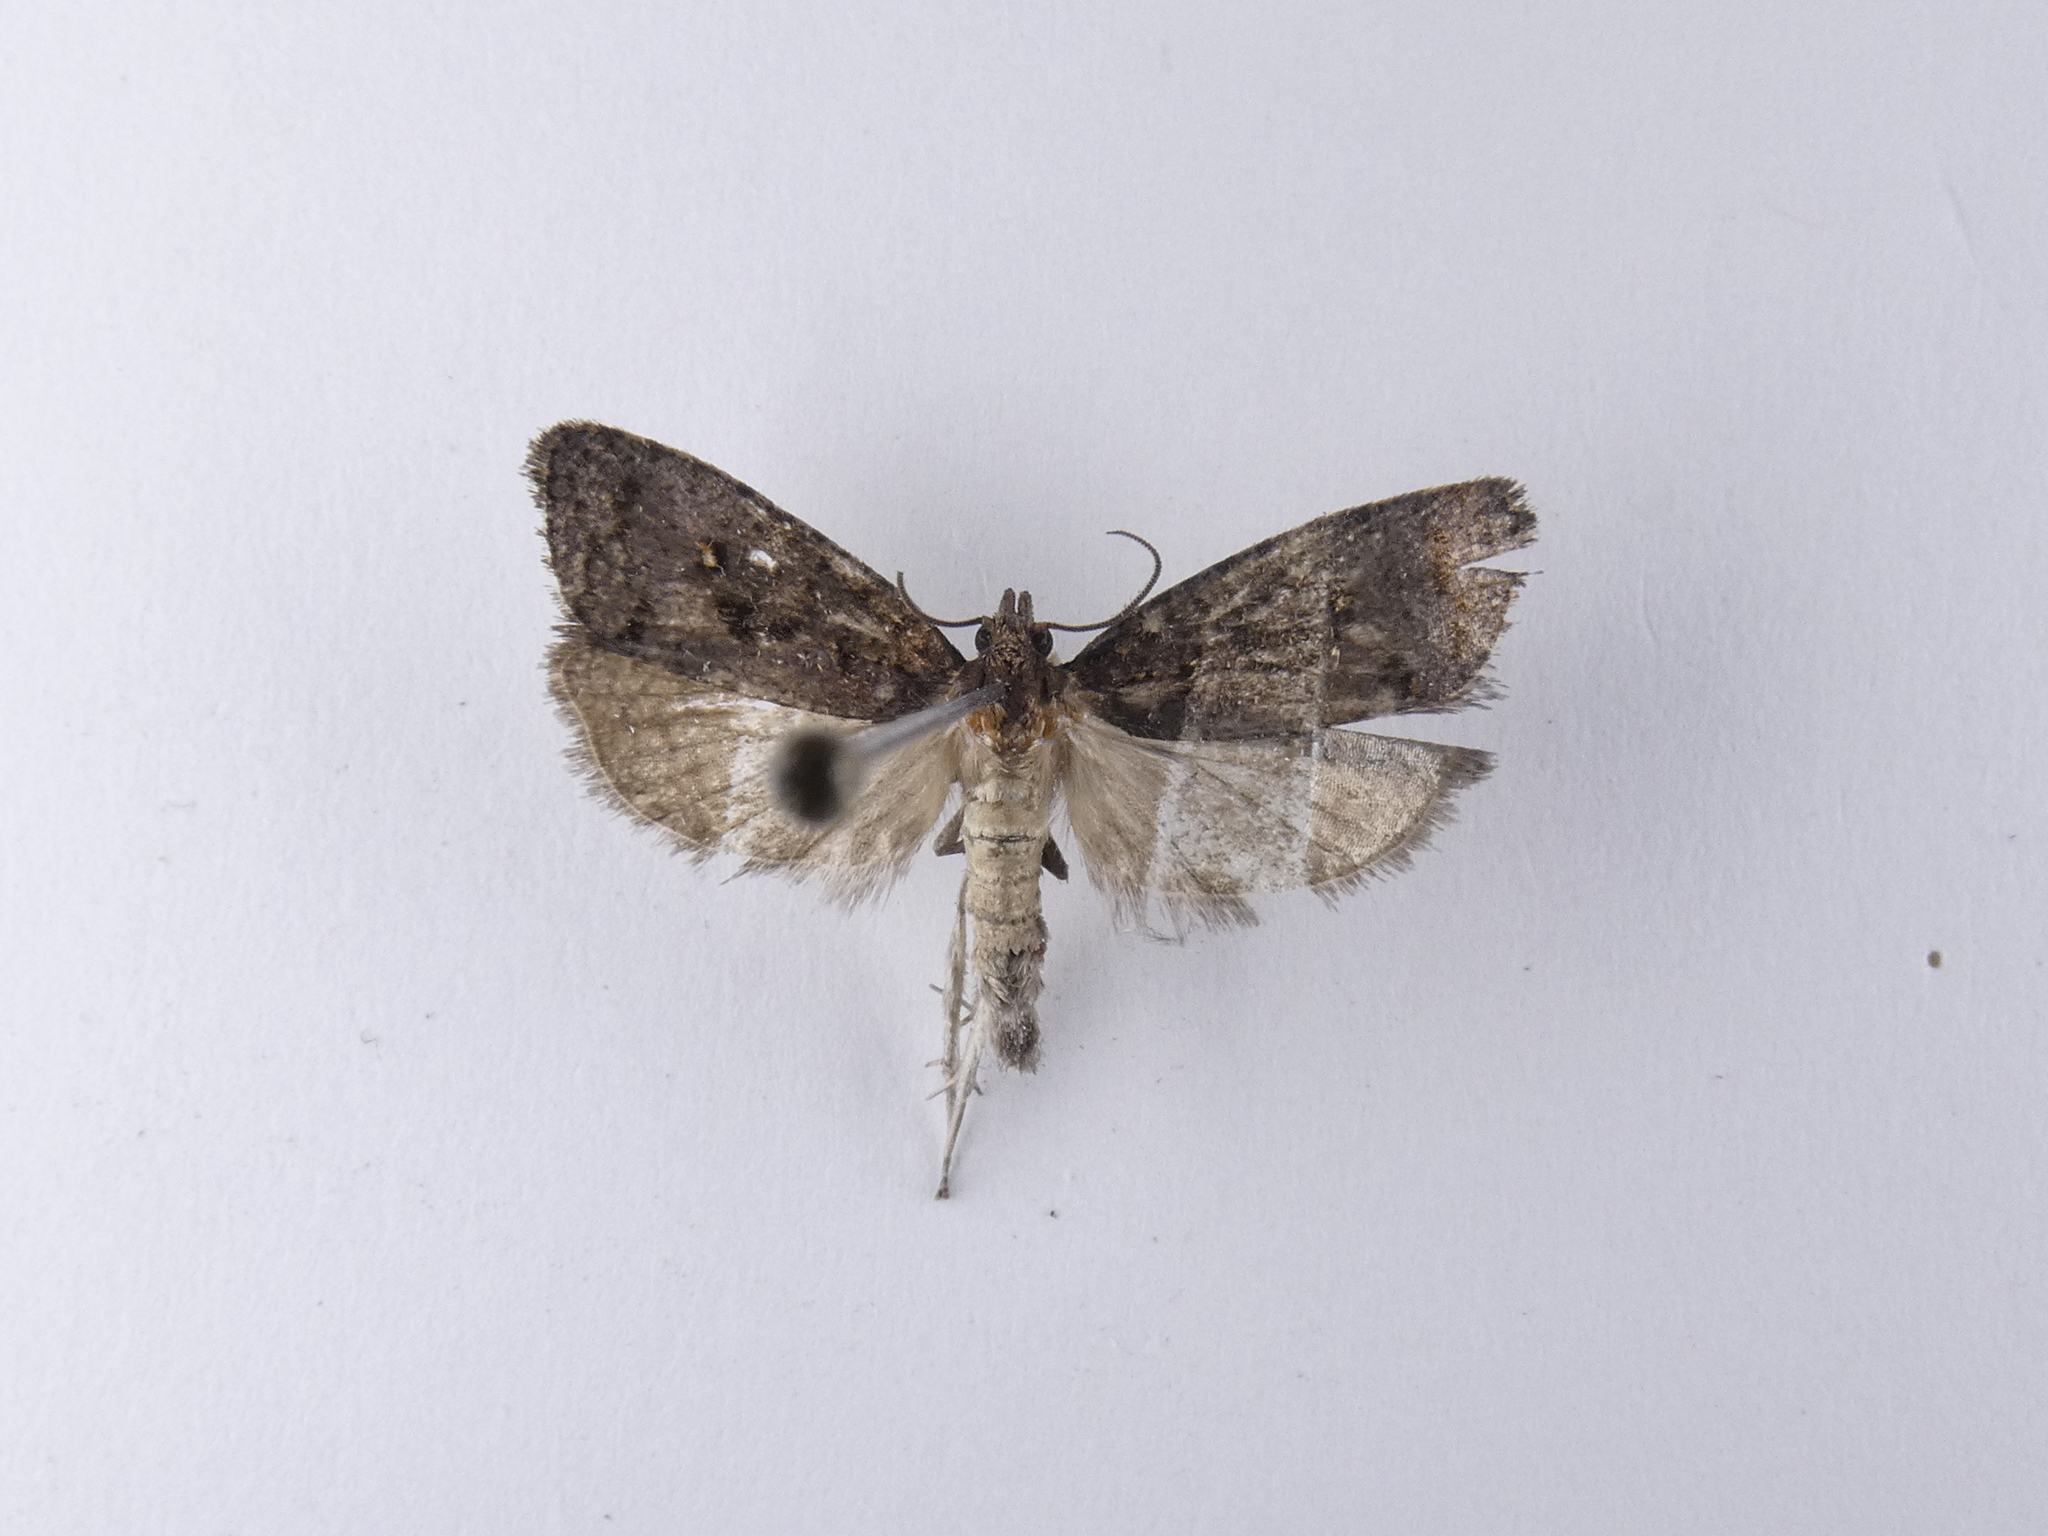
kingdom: Animalia
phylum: Arthropoda
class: Insecta
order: Lepidoptera
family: Tortricidae
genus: Cryptaspasma
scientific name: Cryptaspasma querula
